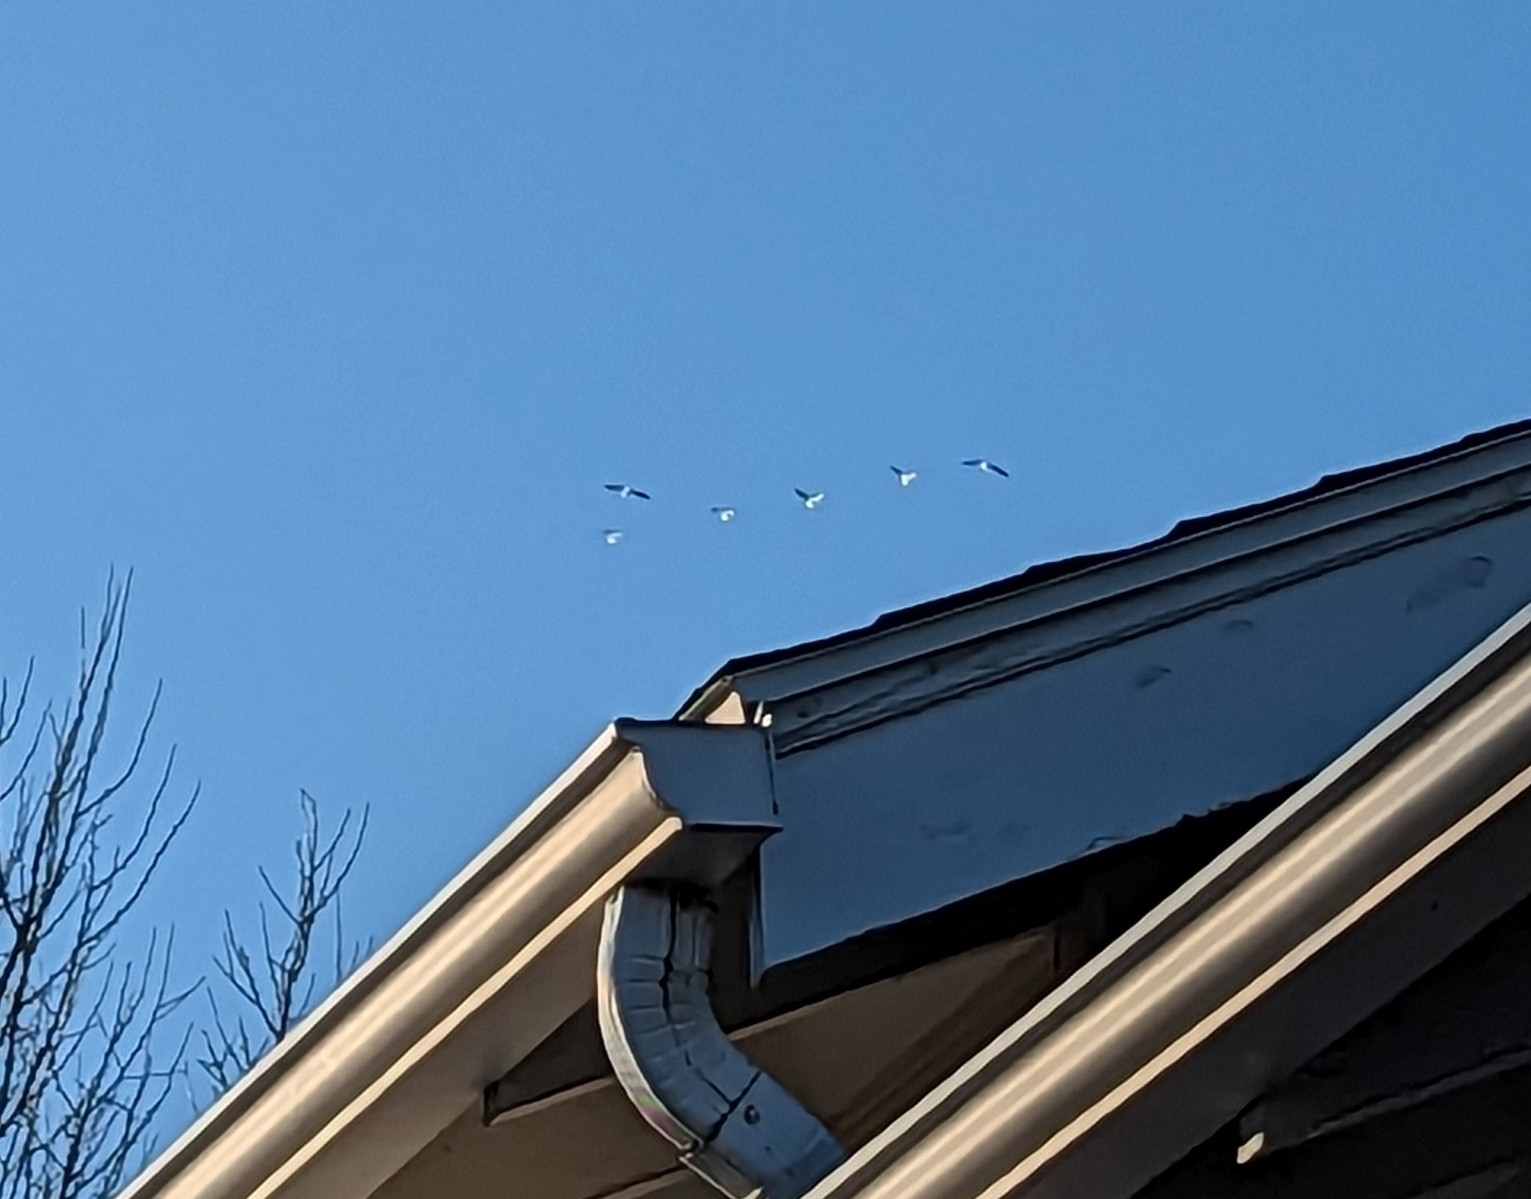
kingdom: Animalia
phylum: Chordata
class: Aves
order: Pelecaniformes
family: Pelecanidae
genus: Pelecanus
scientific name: Pelecanus erythrorhynchos
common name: American white pelican
